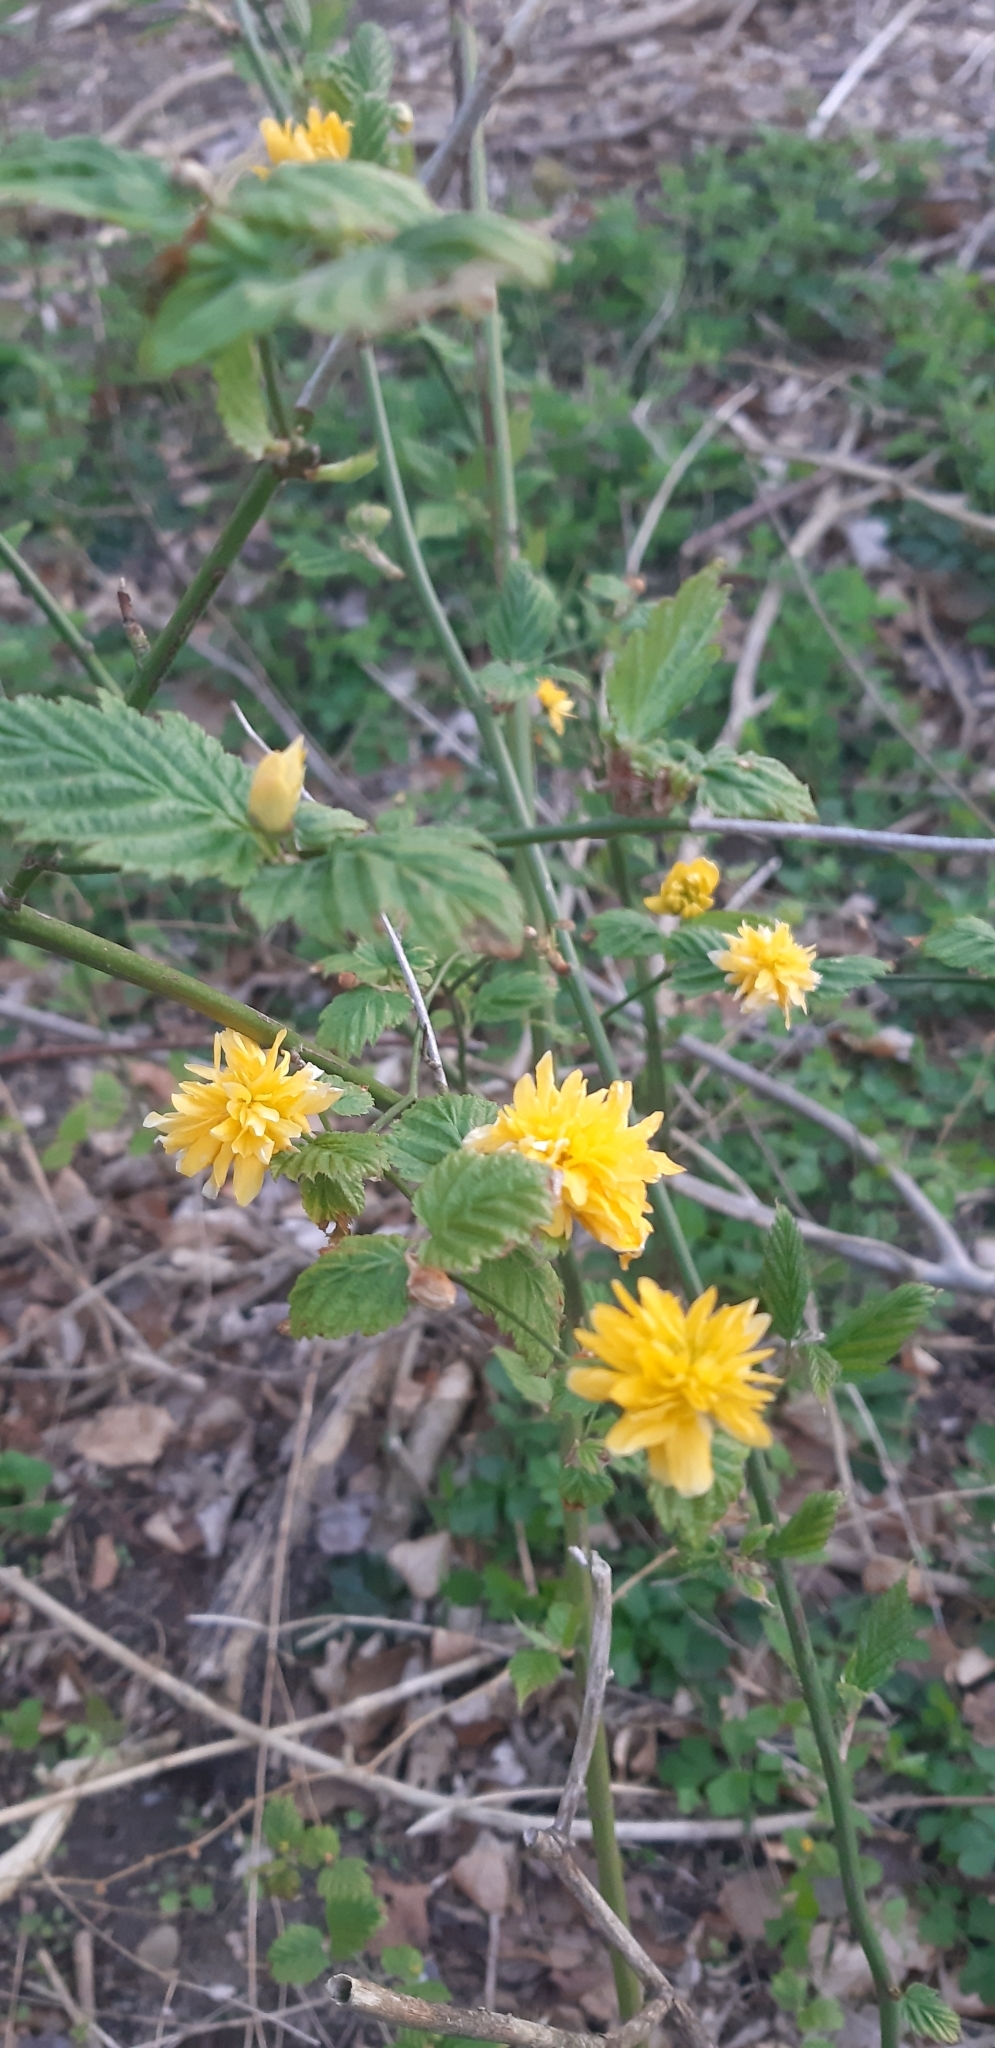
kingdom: Plantae
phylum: Tracheophyta
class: Magnoliopsida
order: Rosales
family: Rosaceae
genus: Kerria
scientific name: Kerria japonica
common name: Japanese kerria
